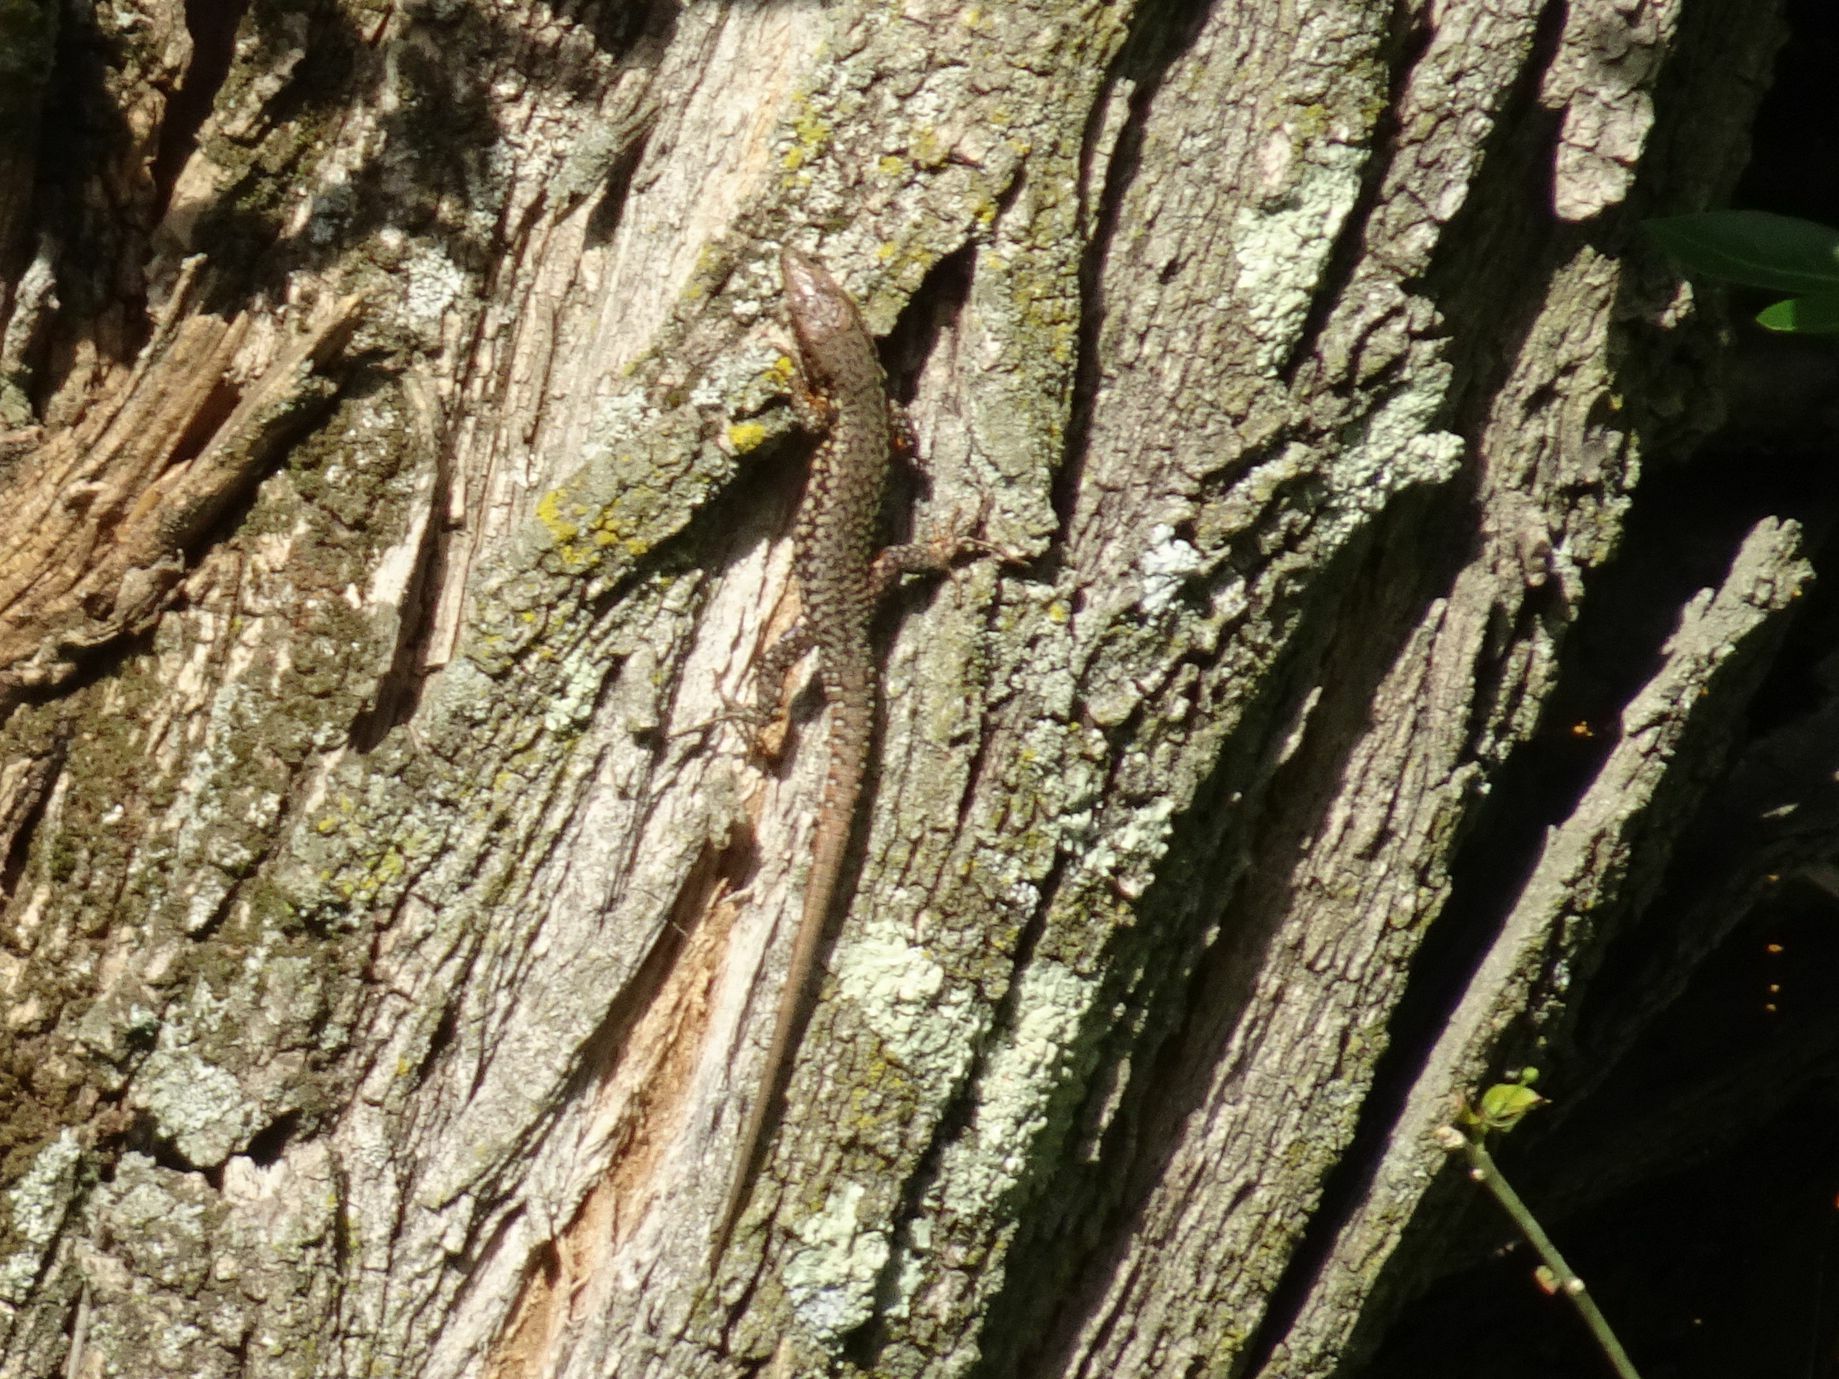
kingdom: Animalia
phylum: Chordata
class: Squamata
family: Lacertidae
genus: Podarcis
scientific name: Podarcis muralis
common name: Common wall lizard
